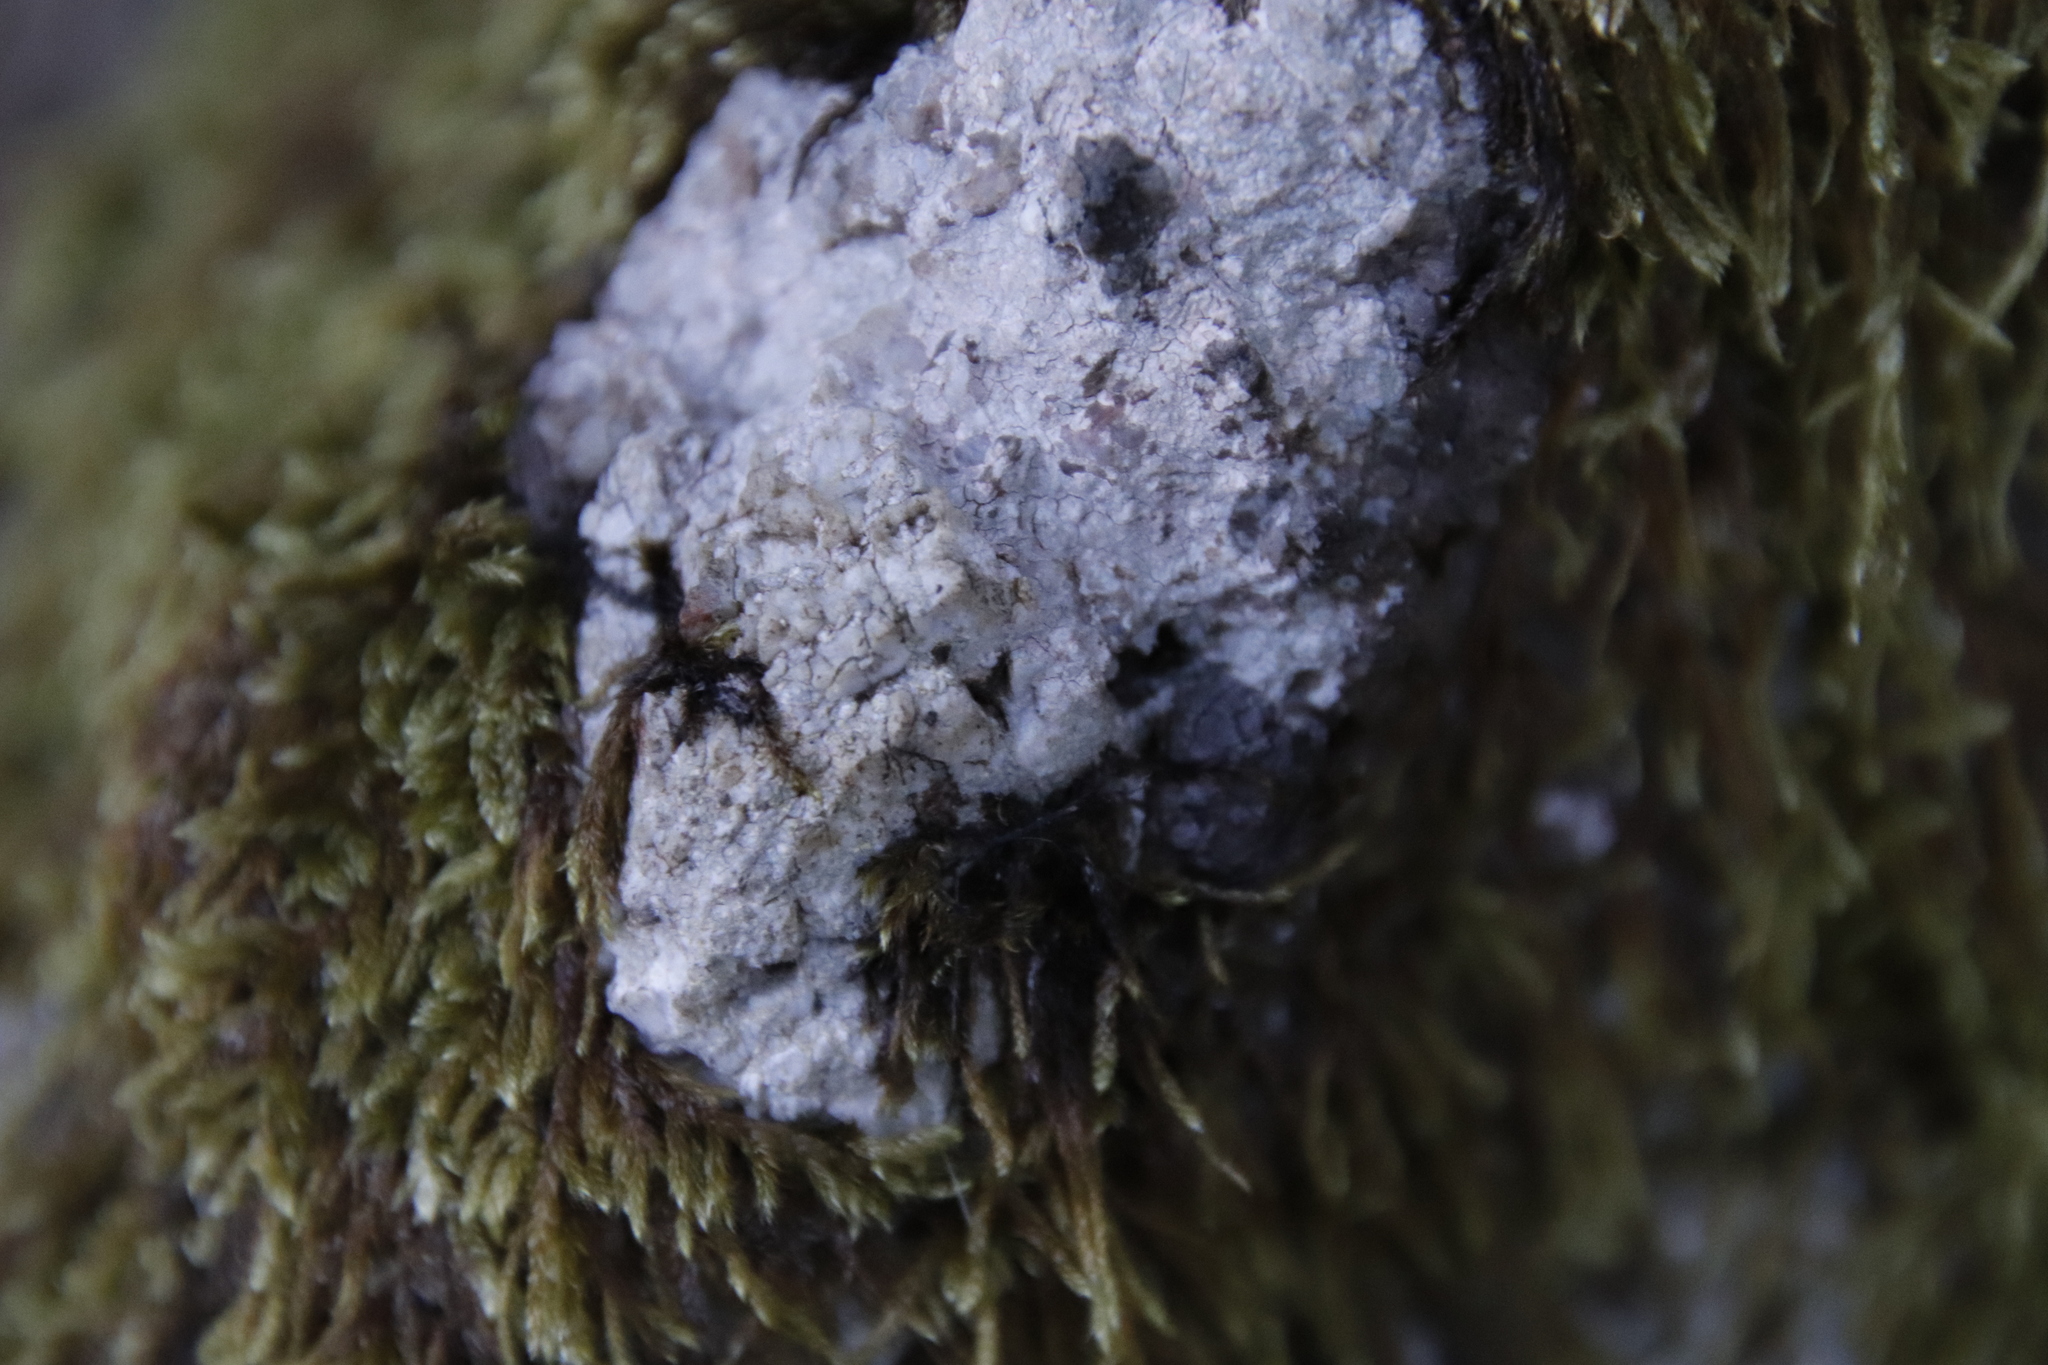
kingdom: Plantae
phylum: Bryophyta
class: Bryopsida
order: Hypnales
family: Hypnaceae
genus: Hypnum
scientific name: Hypnum cupressiforme
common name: Cypress-leaved plait-moss
